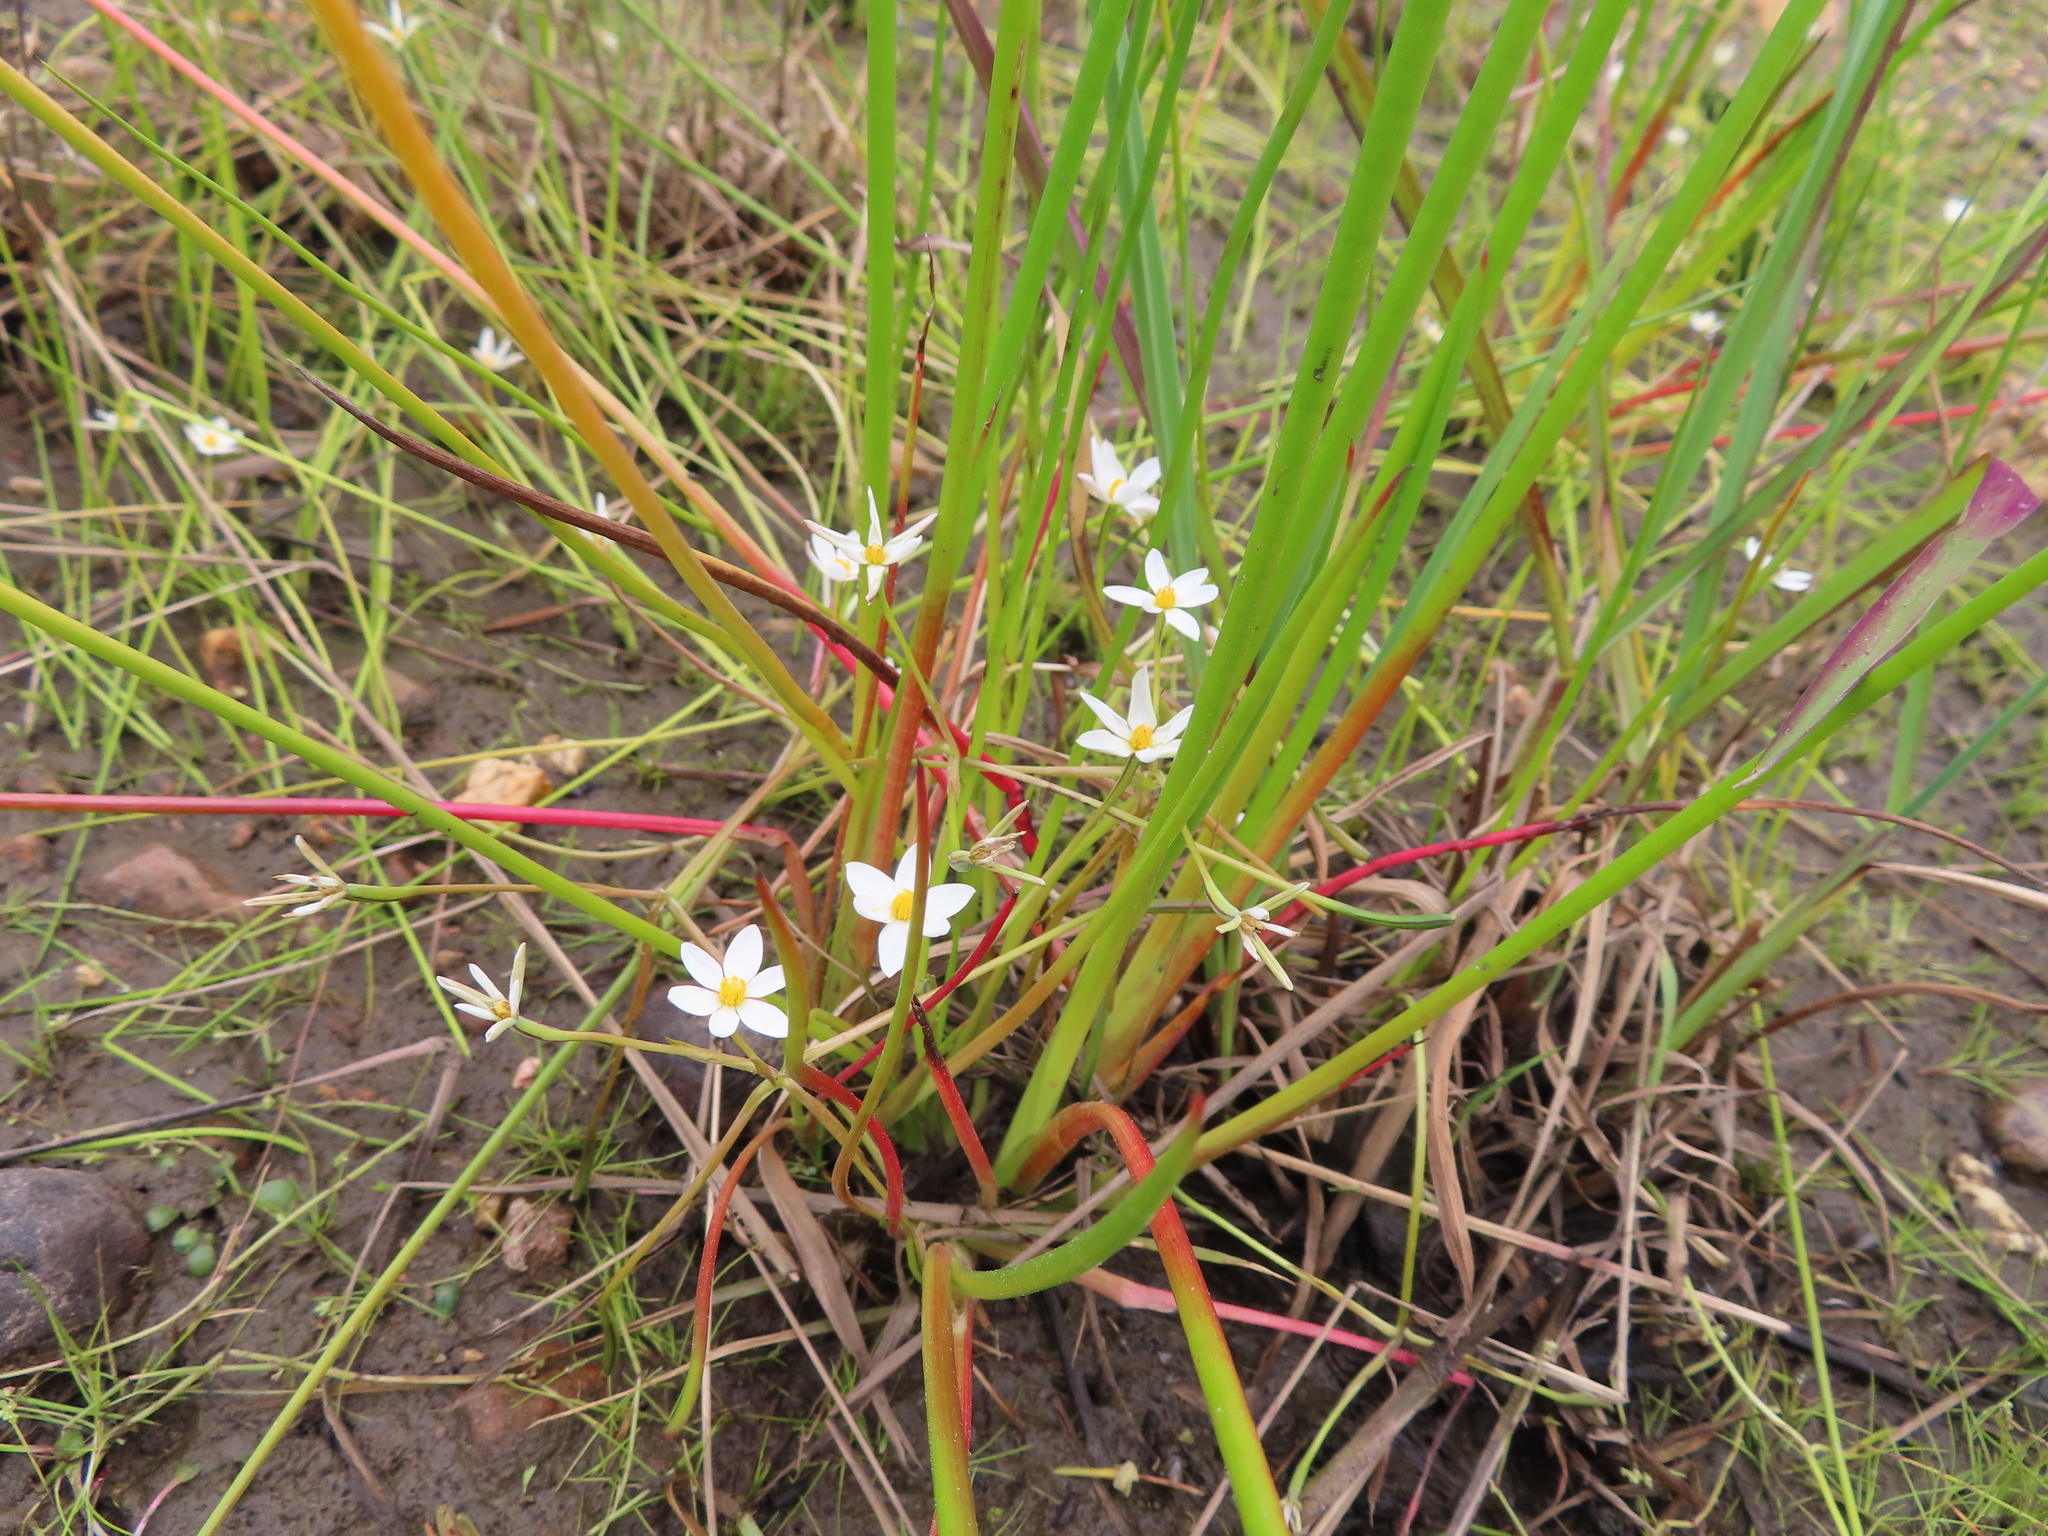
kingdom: Plantae
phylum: Tracheophyta
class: Liliopsida
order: Asparagales
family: Hypoxidaceae
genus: Pauridia
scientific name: Pauridia aquatica
